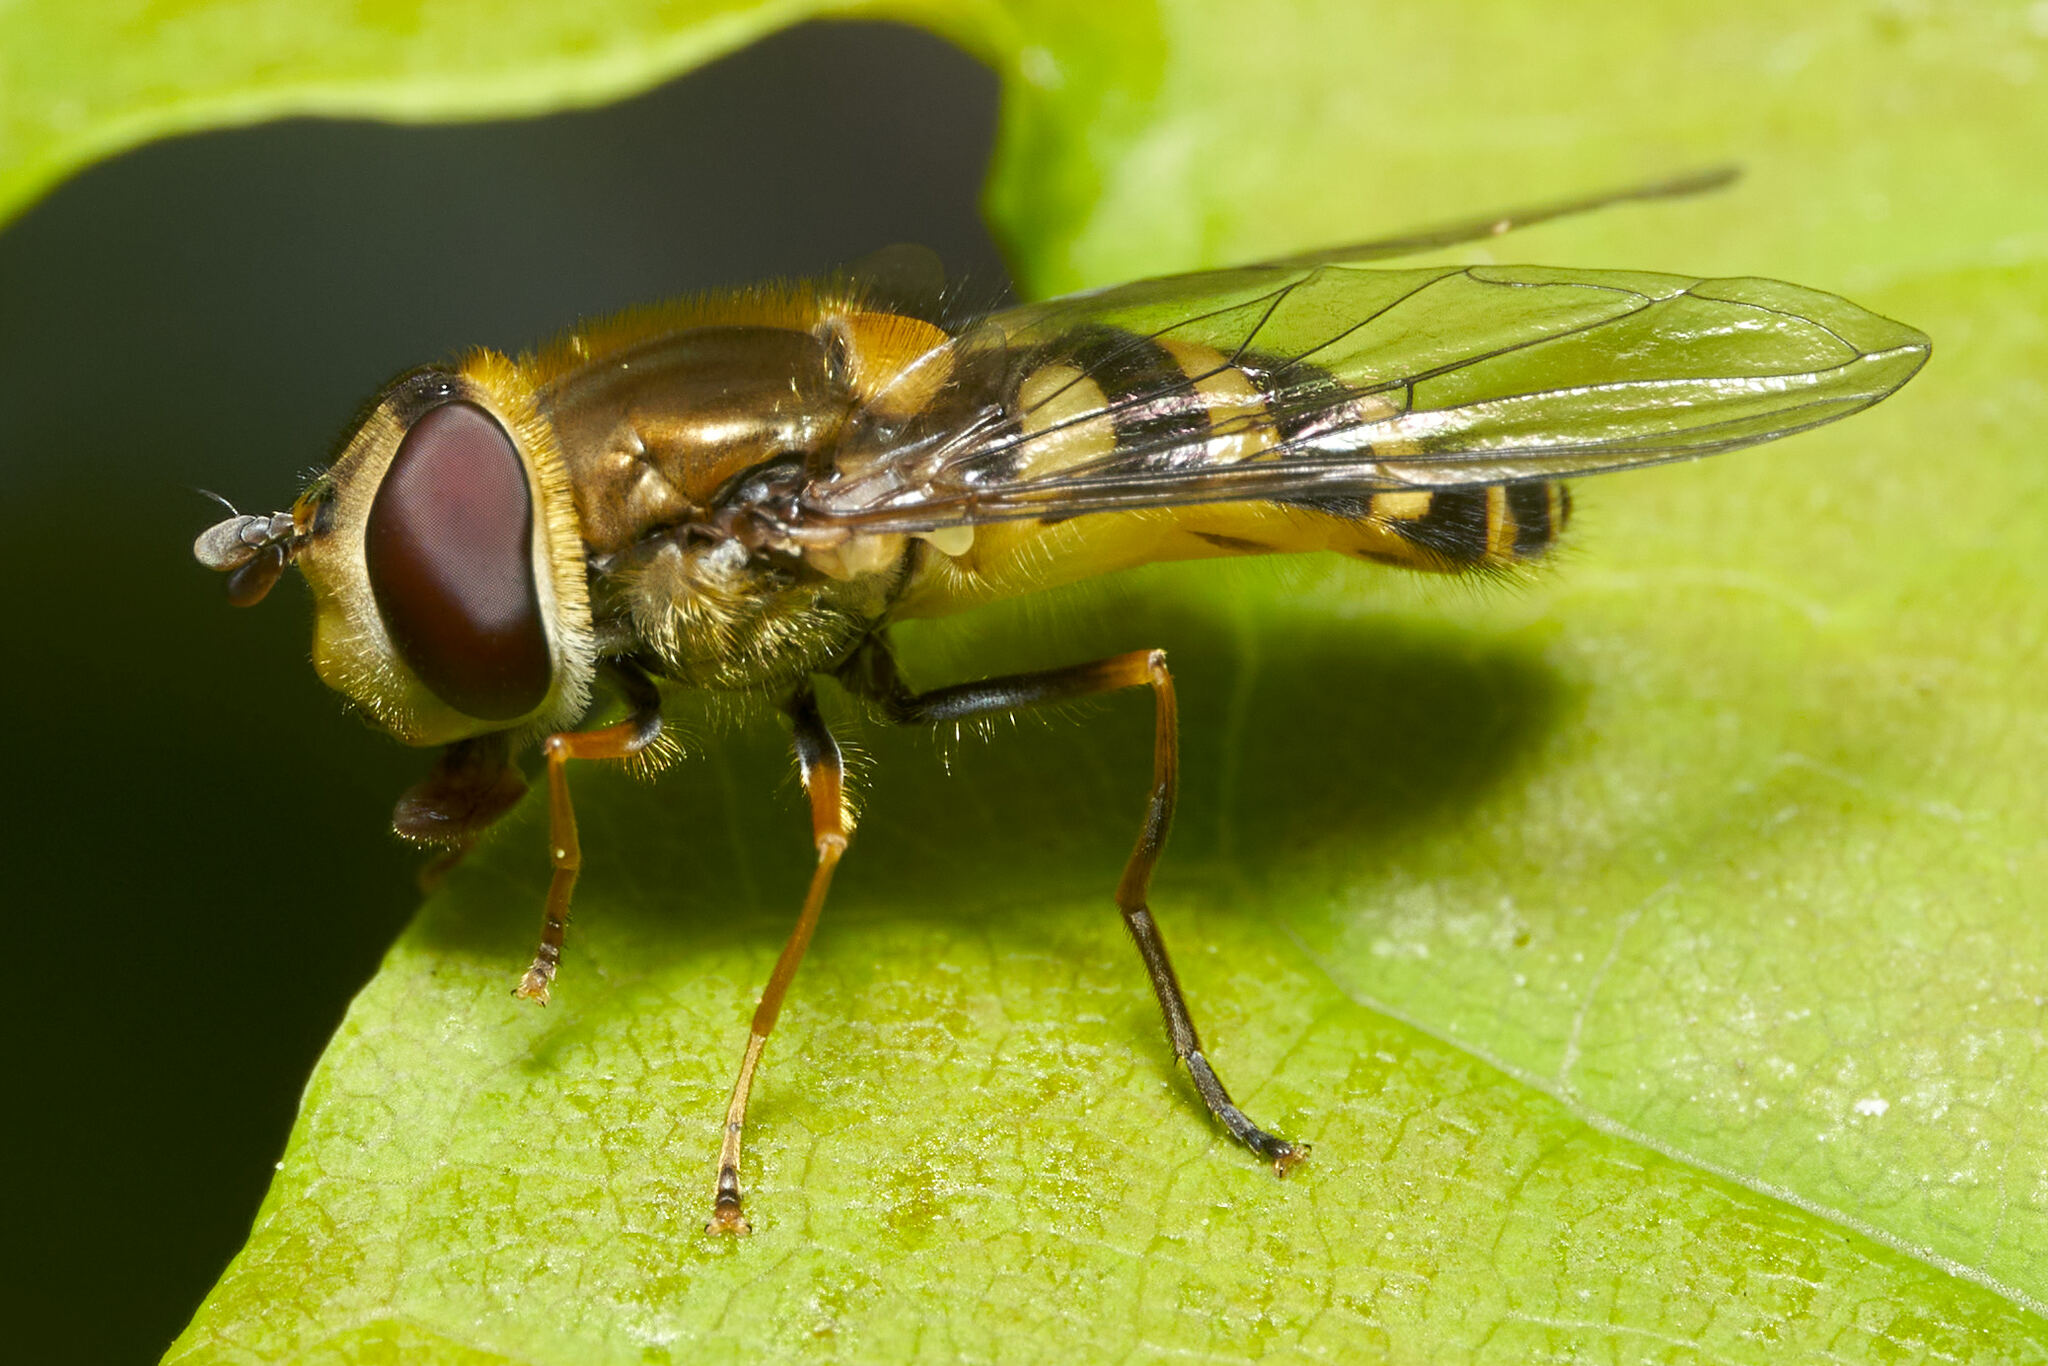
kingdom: Animalia
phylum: Arthropoda
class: Insecta
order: Diptera
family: Syrphidae
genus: Syrphus
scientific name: Syrphus
